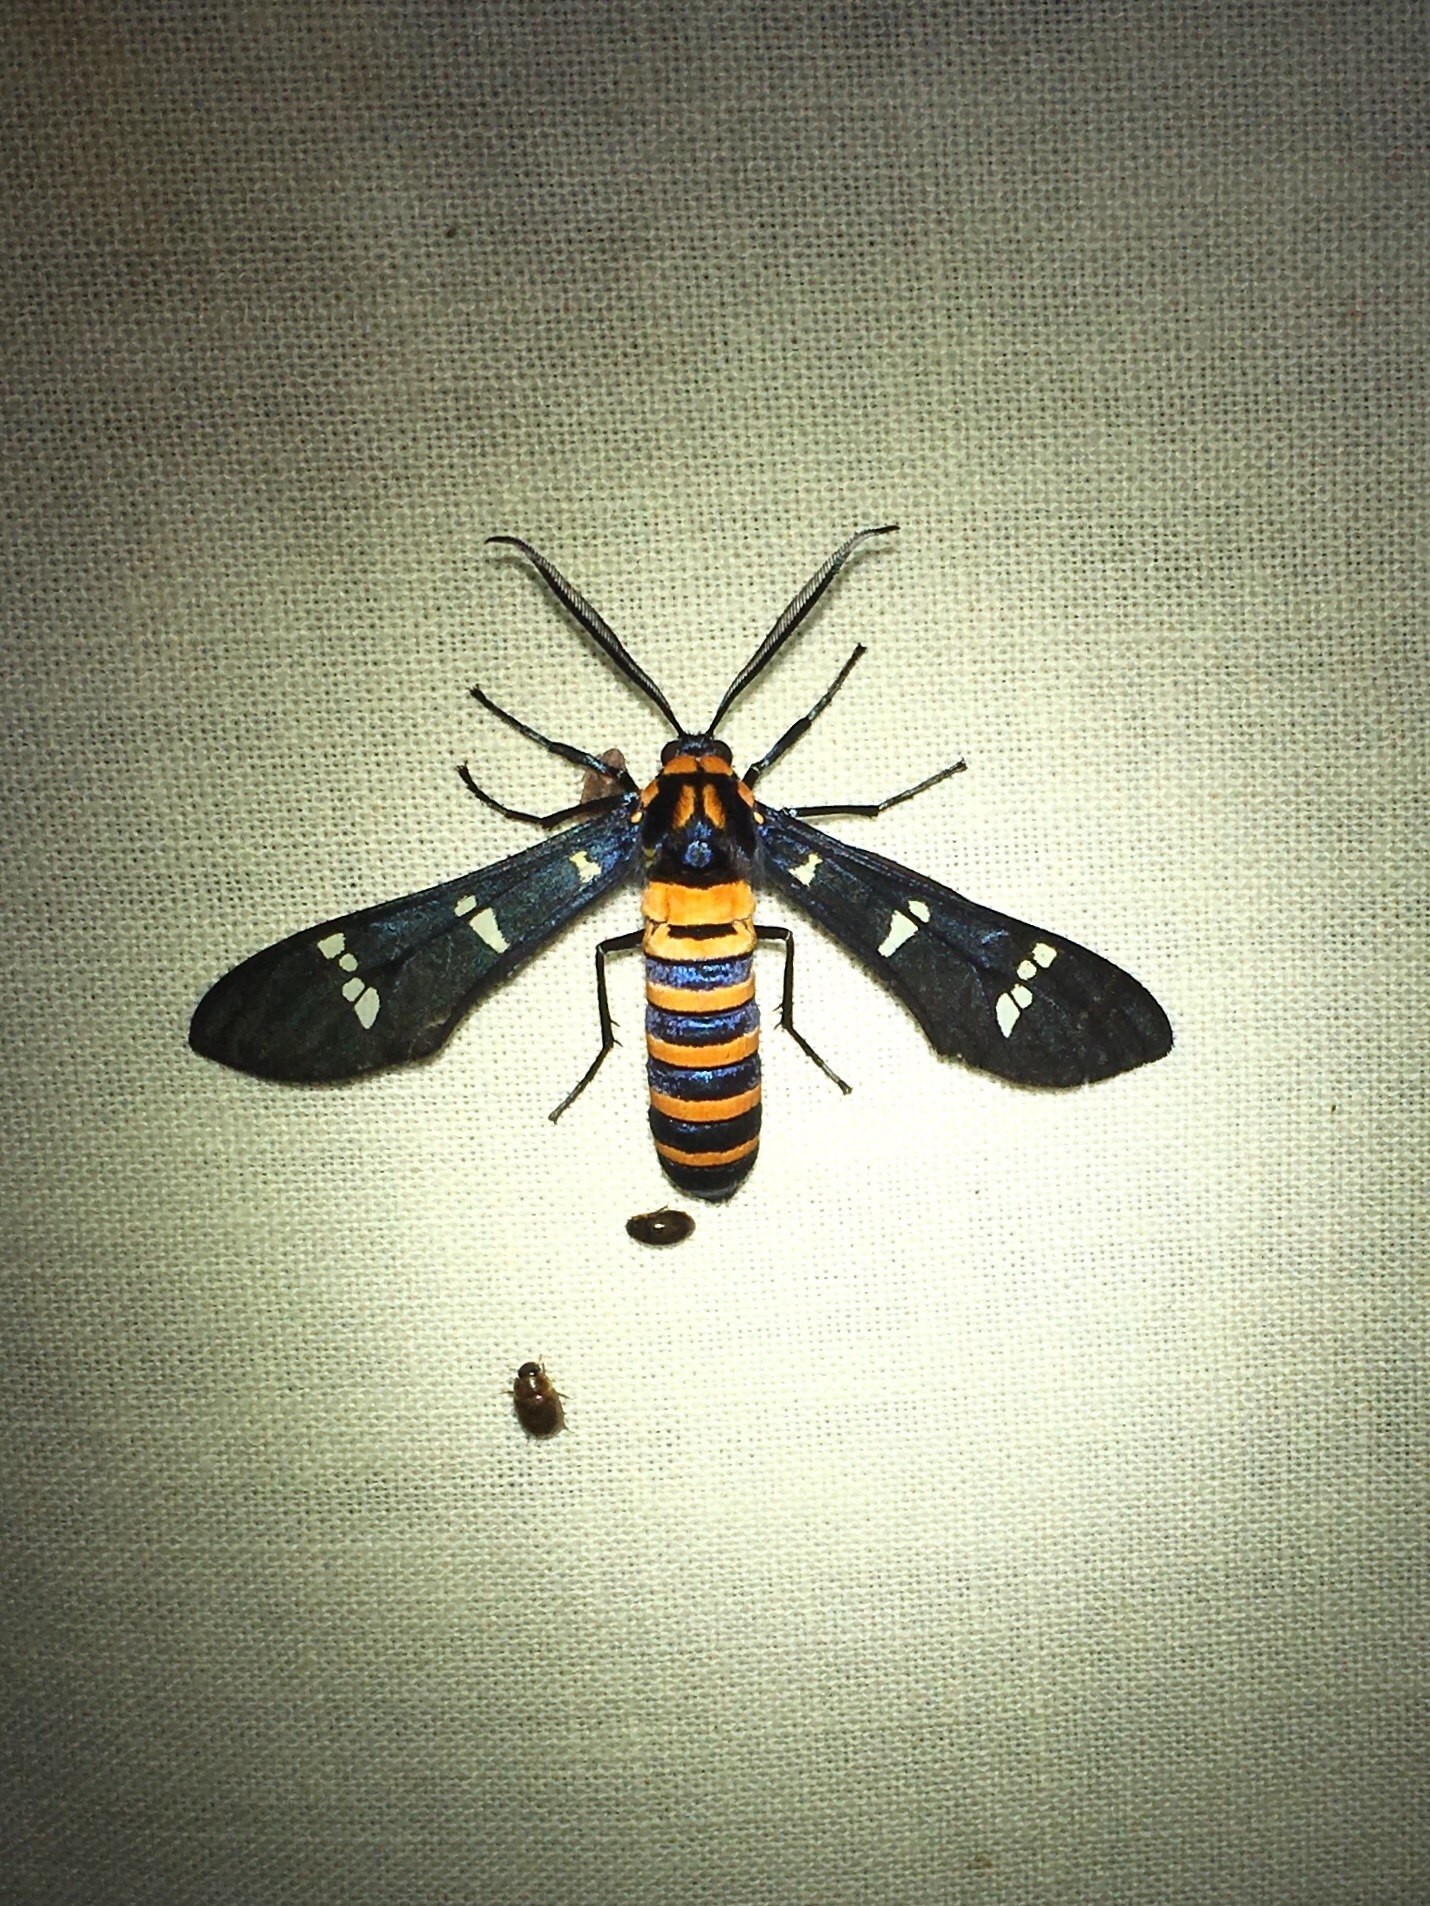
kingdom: Animalia
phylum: Arthropoda
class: Insecta
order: Lepidoptera
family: Erebidae
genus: Syntomeida
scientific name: Syntomeida ipomoeae
